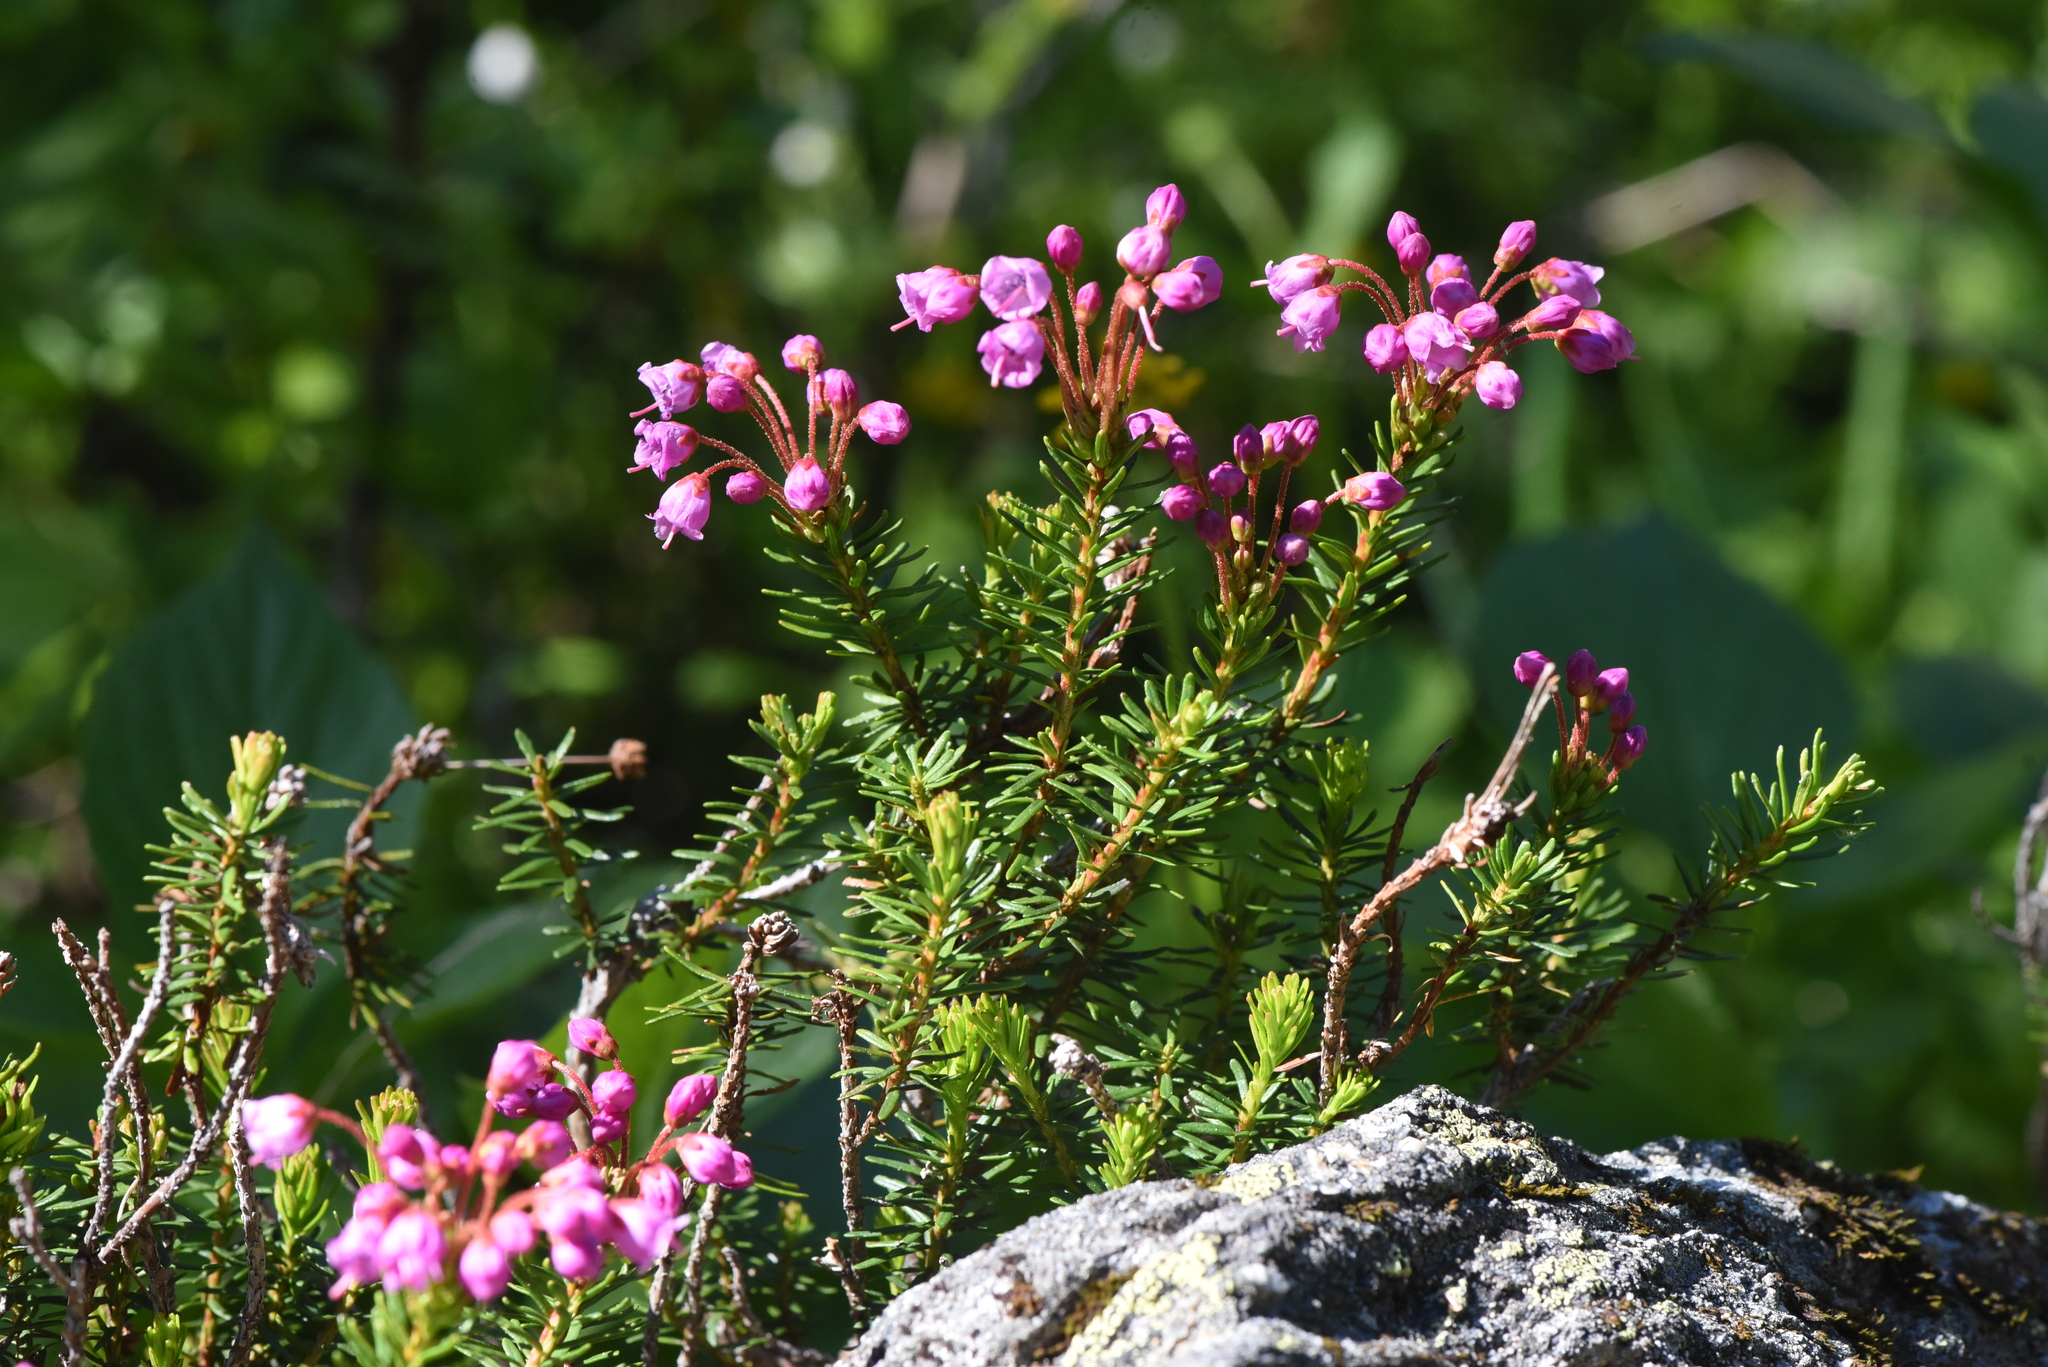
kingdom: Plantae
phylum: Tracheophyta
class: Magnoliopsida
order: Ericales
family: Ericaceae
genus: Phyllodoce
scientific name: Phyllodoce empetriformis
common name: Pink mountain heather
